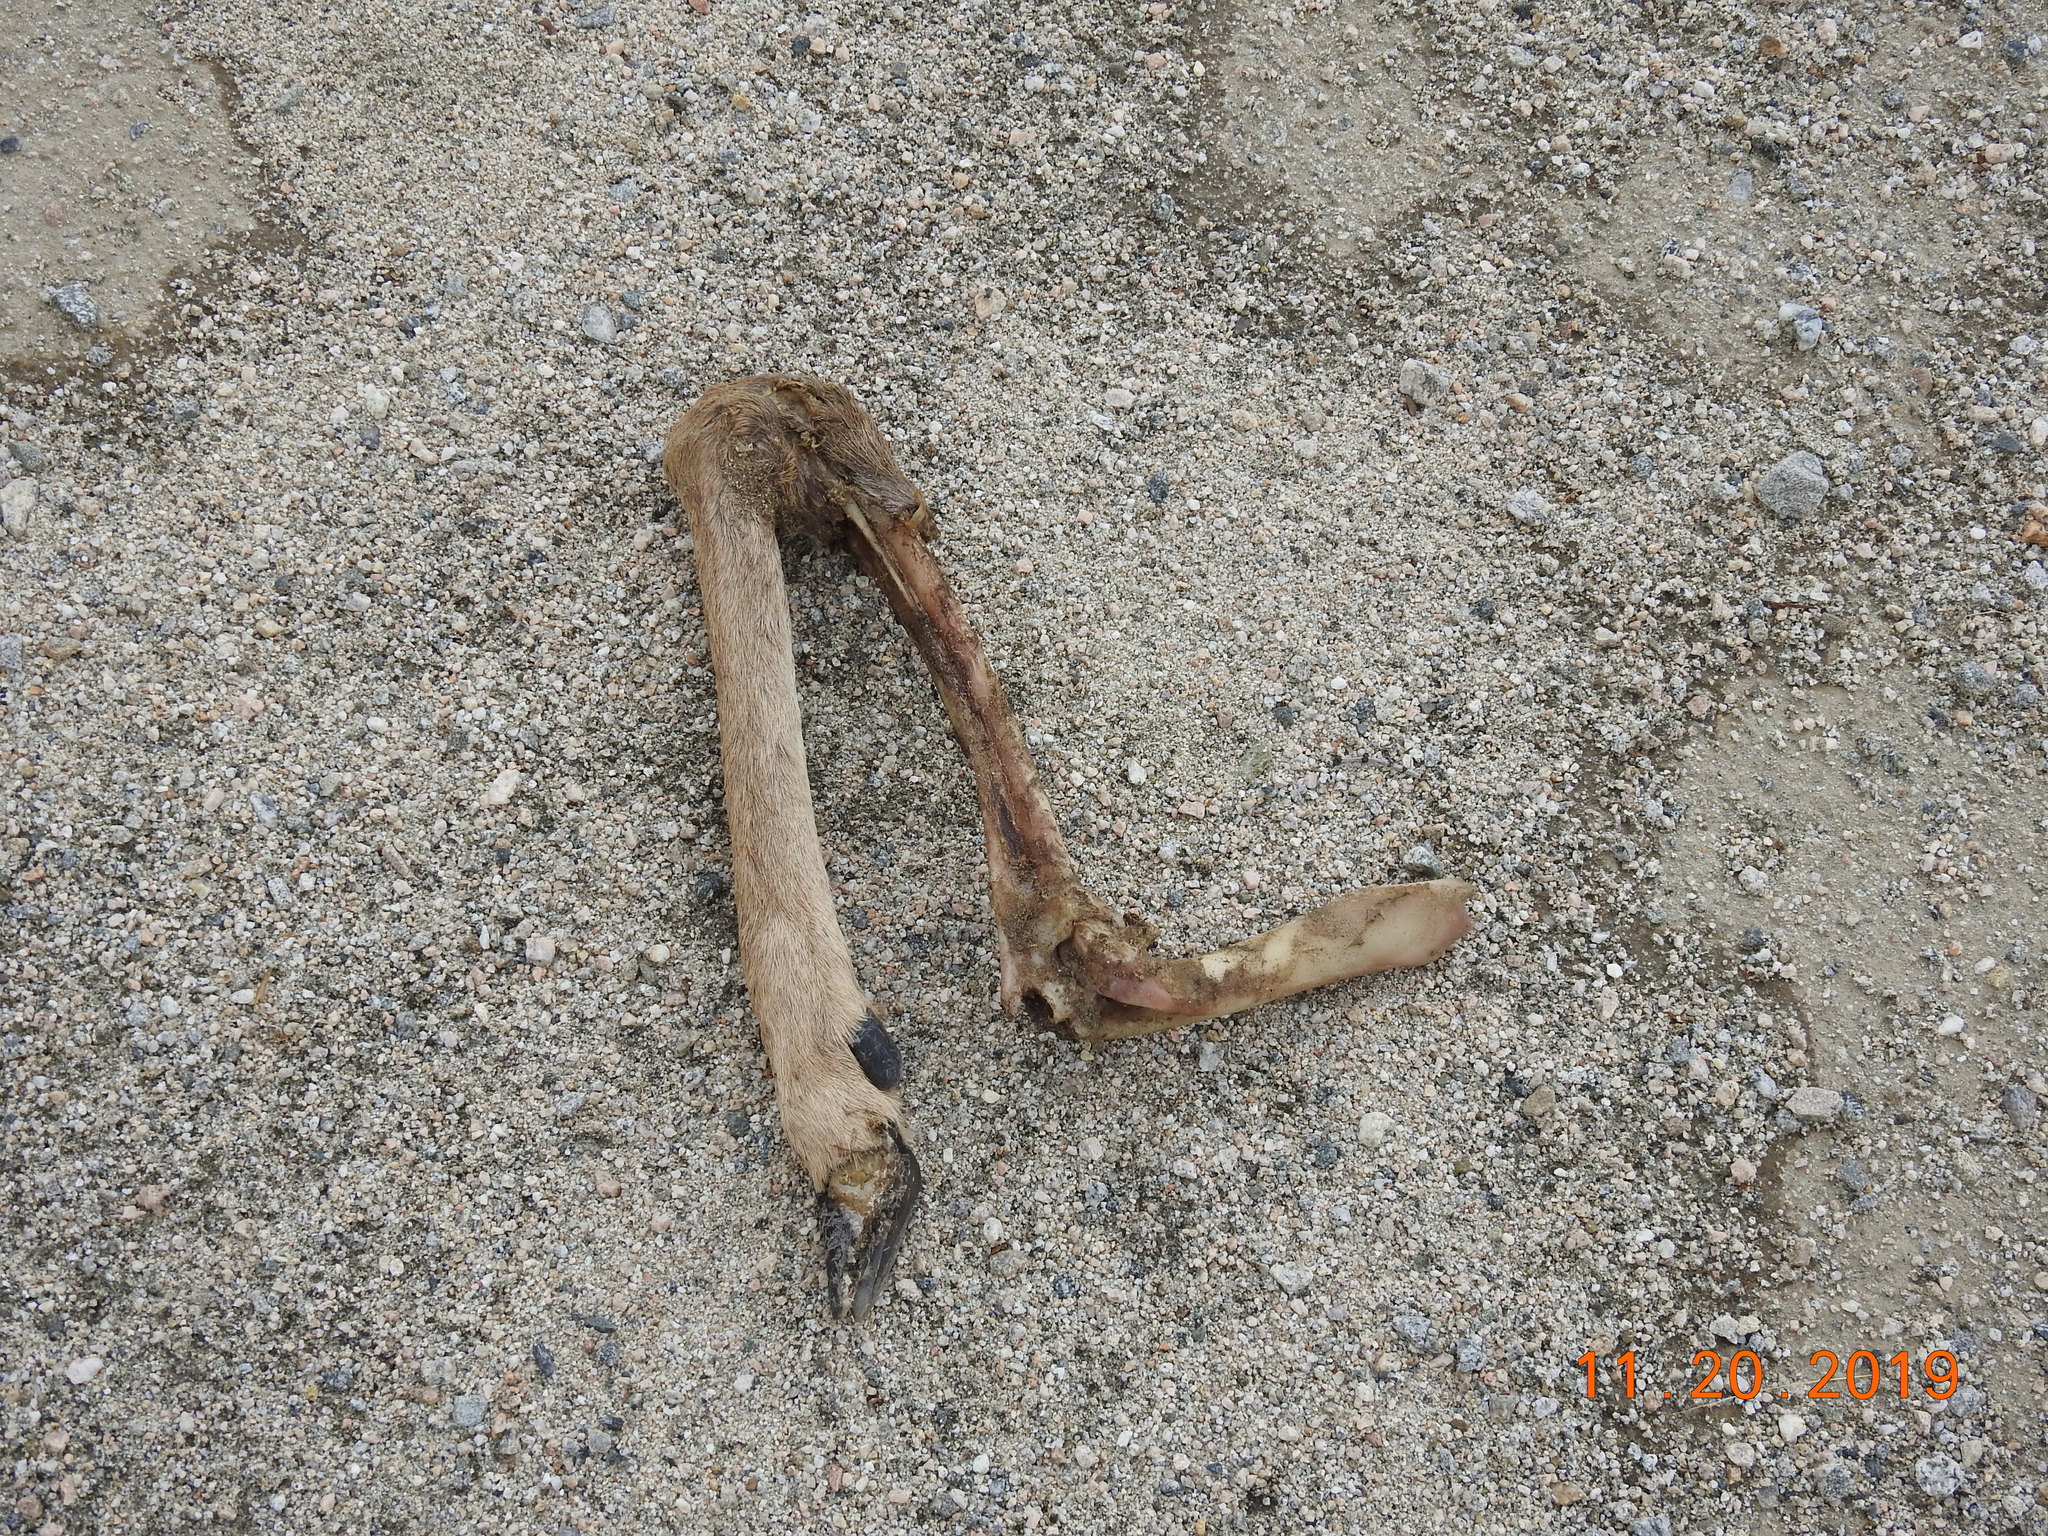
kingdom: Animalia
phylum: Chordata
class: Mammalia
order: Artiodactyla
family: Cervidae
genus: Odocoileus
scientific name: Odocoileus hemionus
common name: Mule deer
